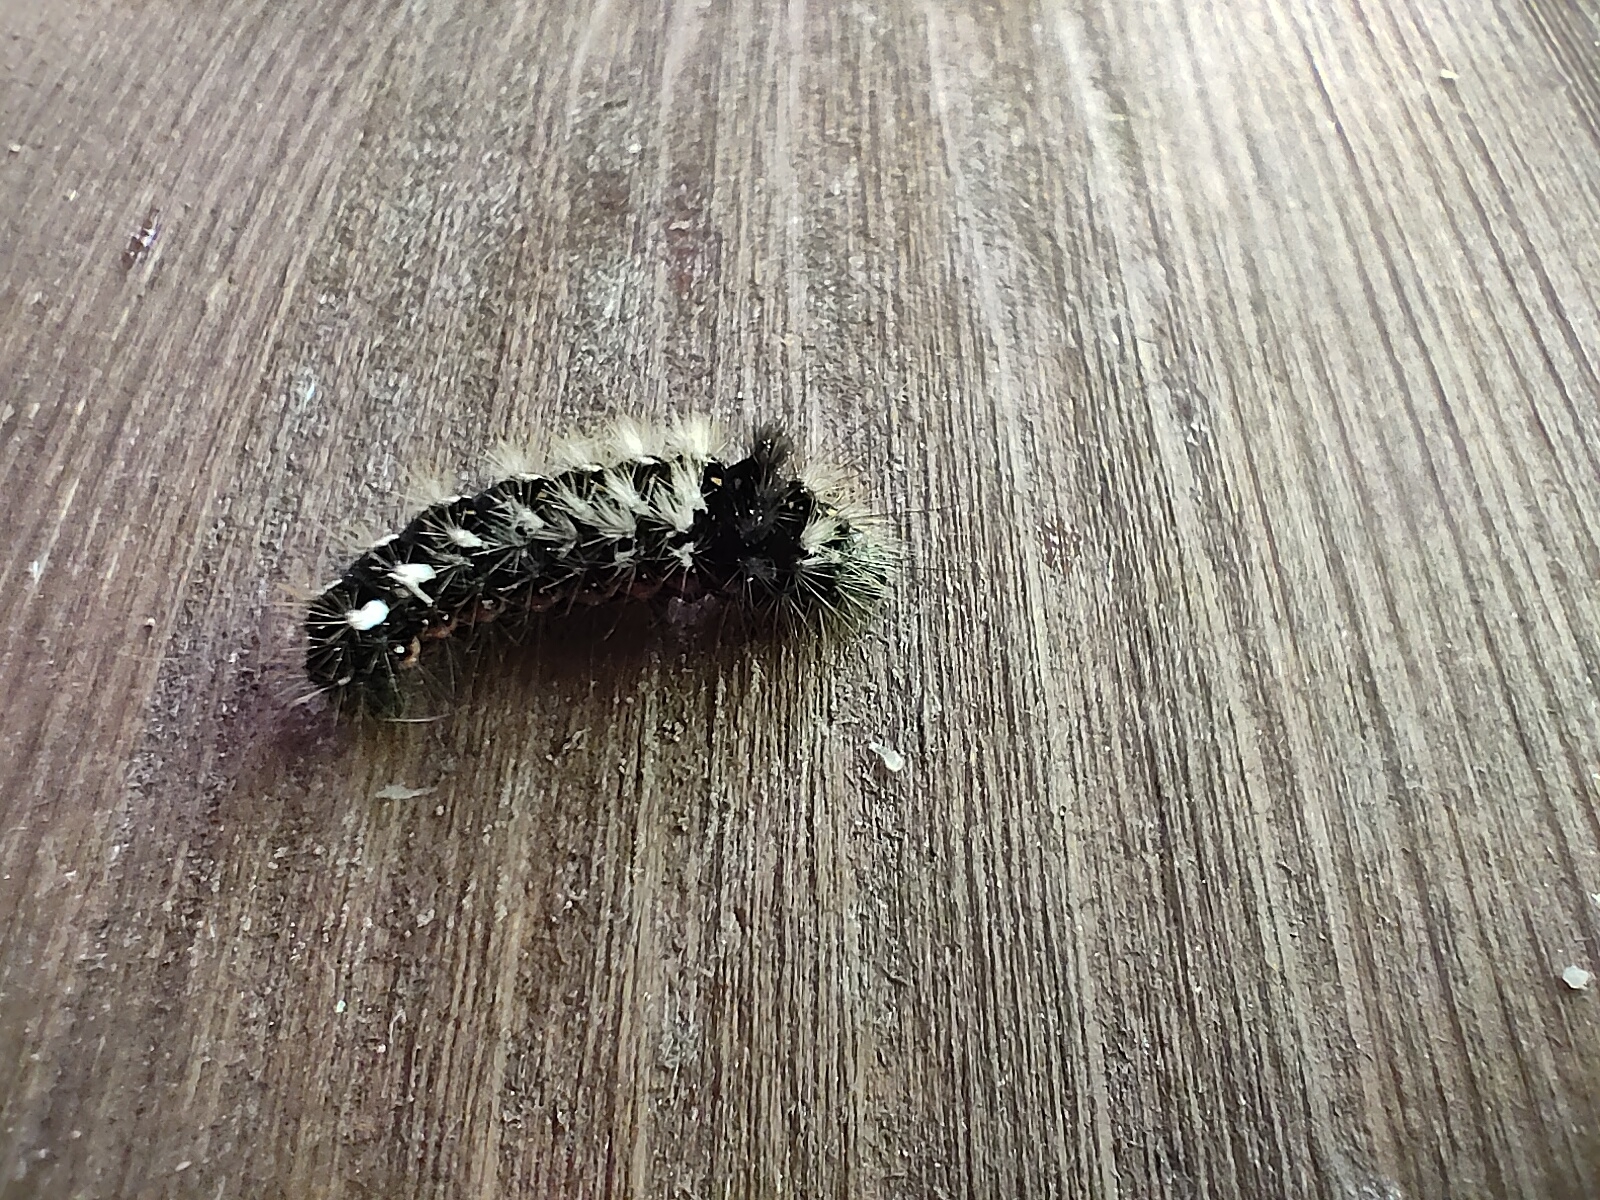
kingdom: Animalia
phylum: Arthropoda
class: Insecta
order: Lepidoptera
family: Noctuidae
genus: Acronicta
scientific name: Acronicta rumicis
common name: Knot grass
